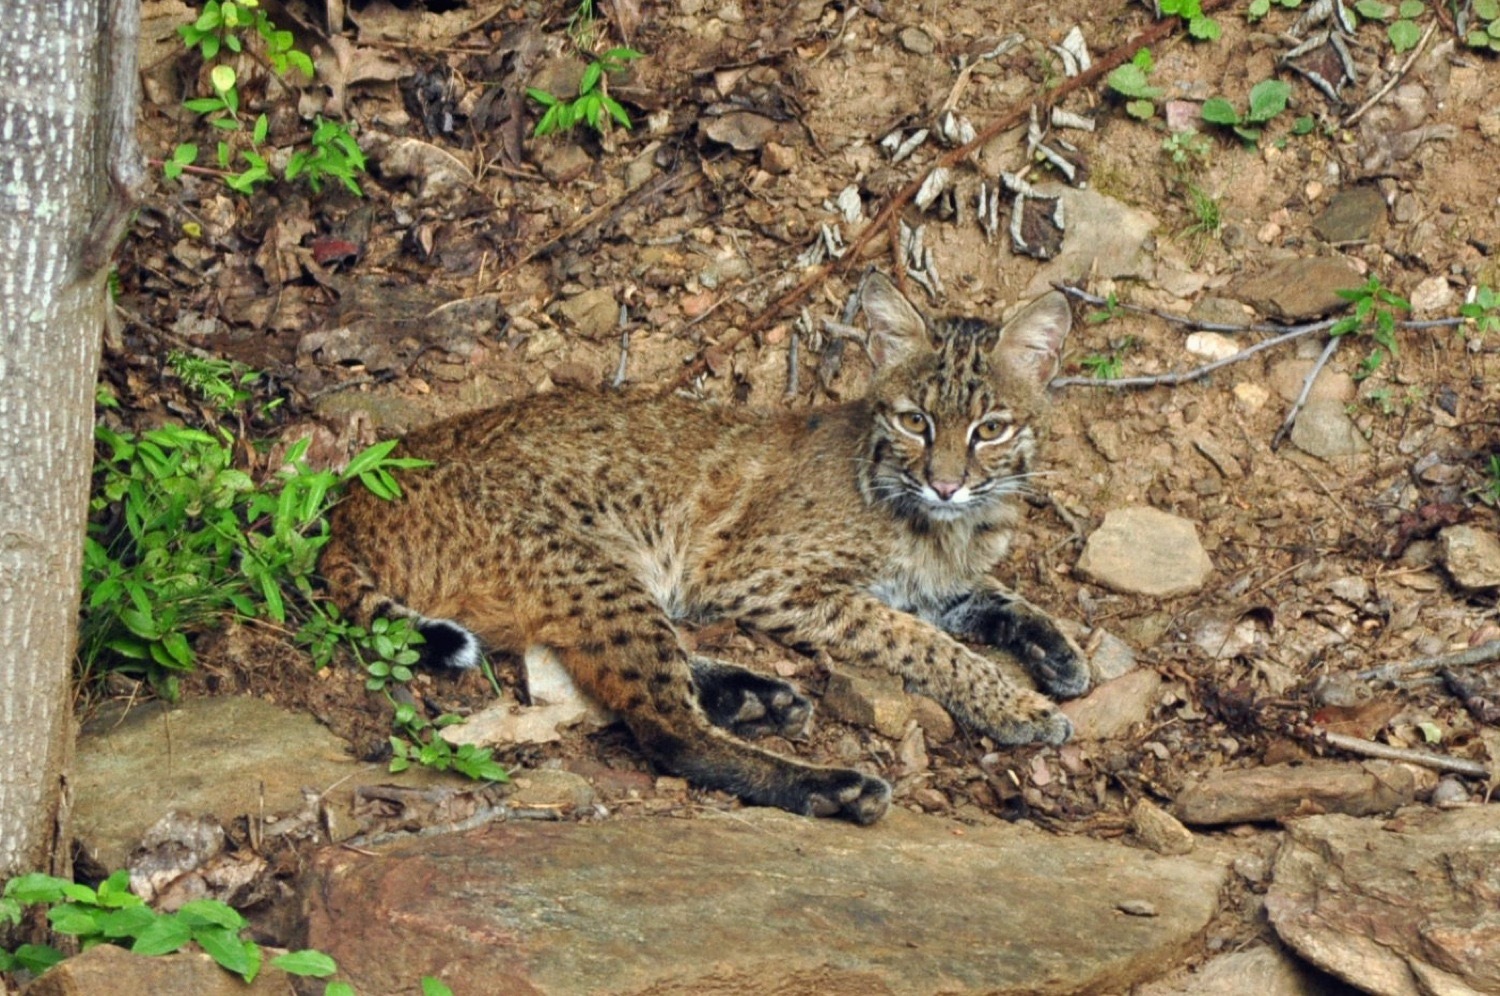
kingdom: Animalia
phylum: Chordata
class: Mammalia
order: Carnivora
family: Felidae
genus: Lynx
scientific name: Lynx rufus
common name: Bobcat
